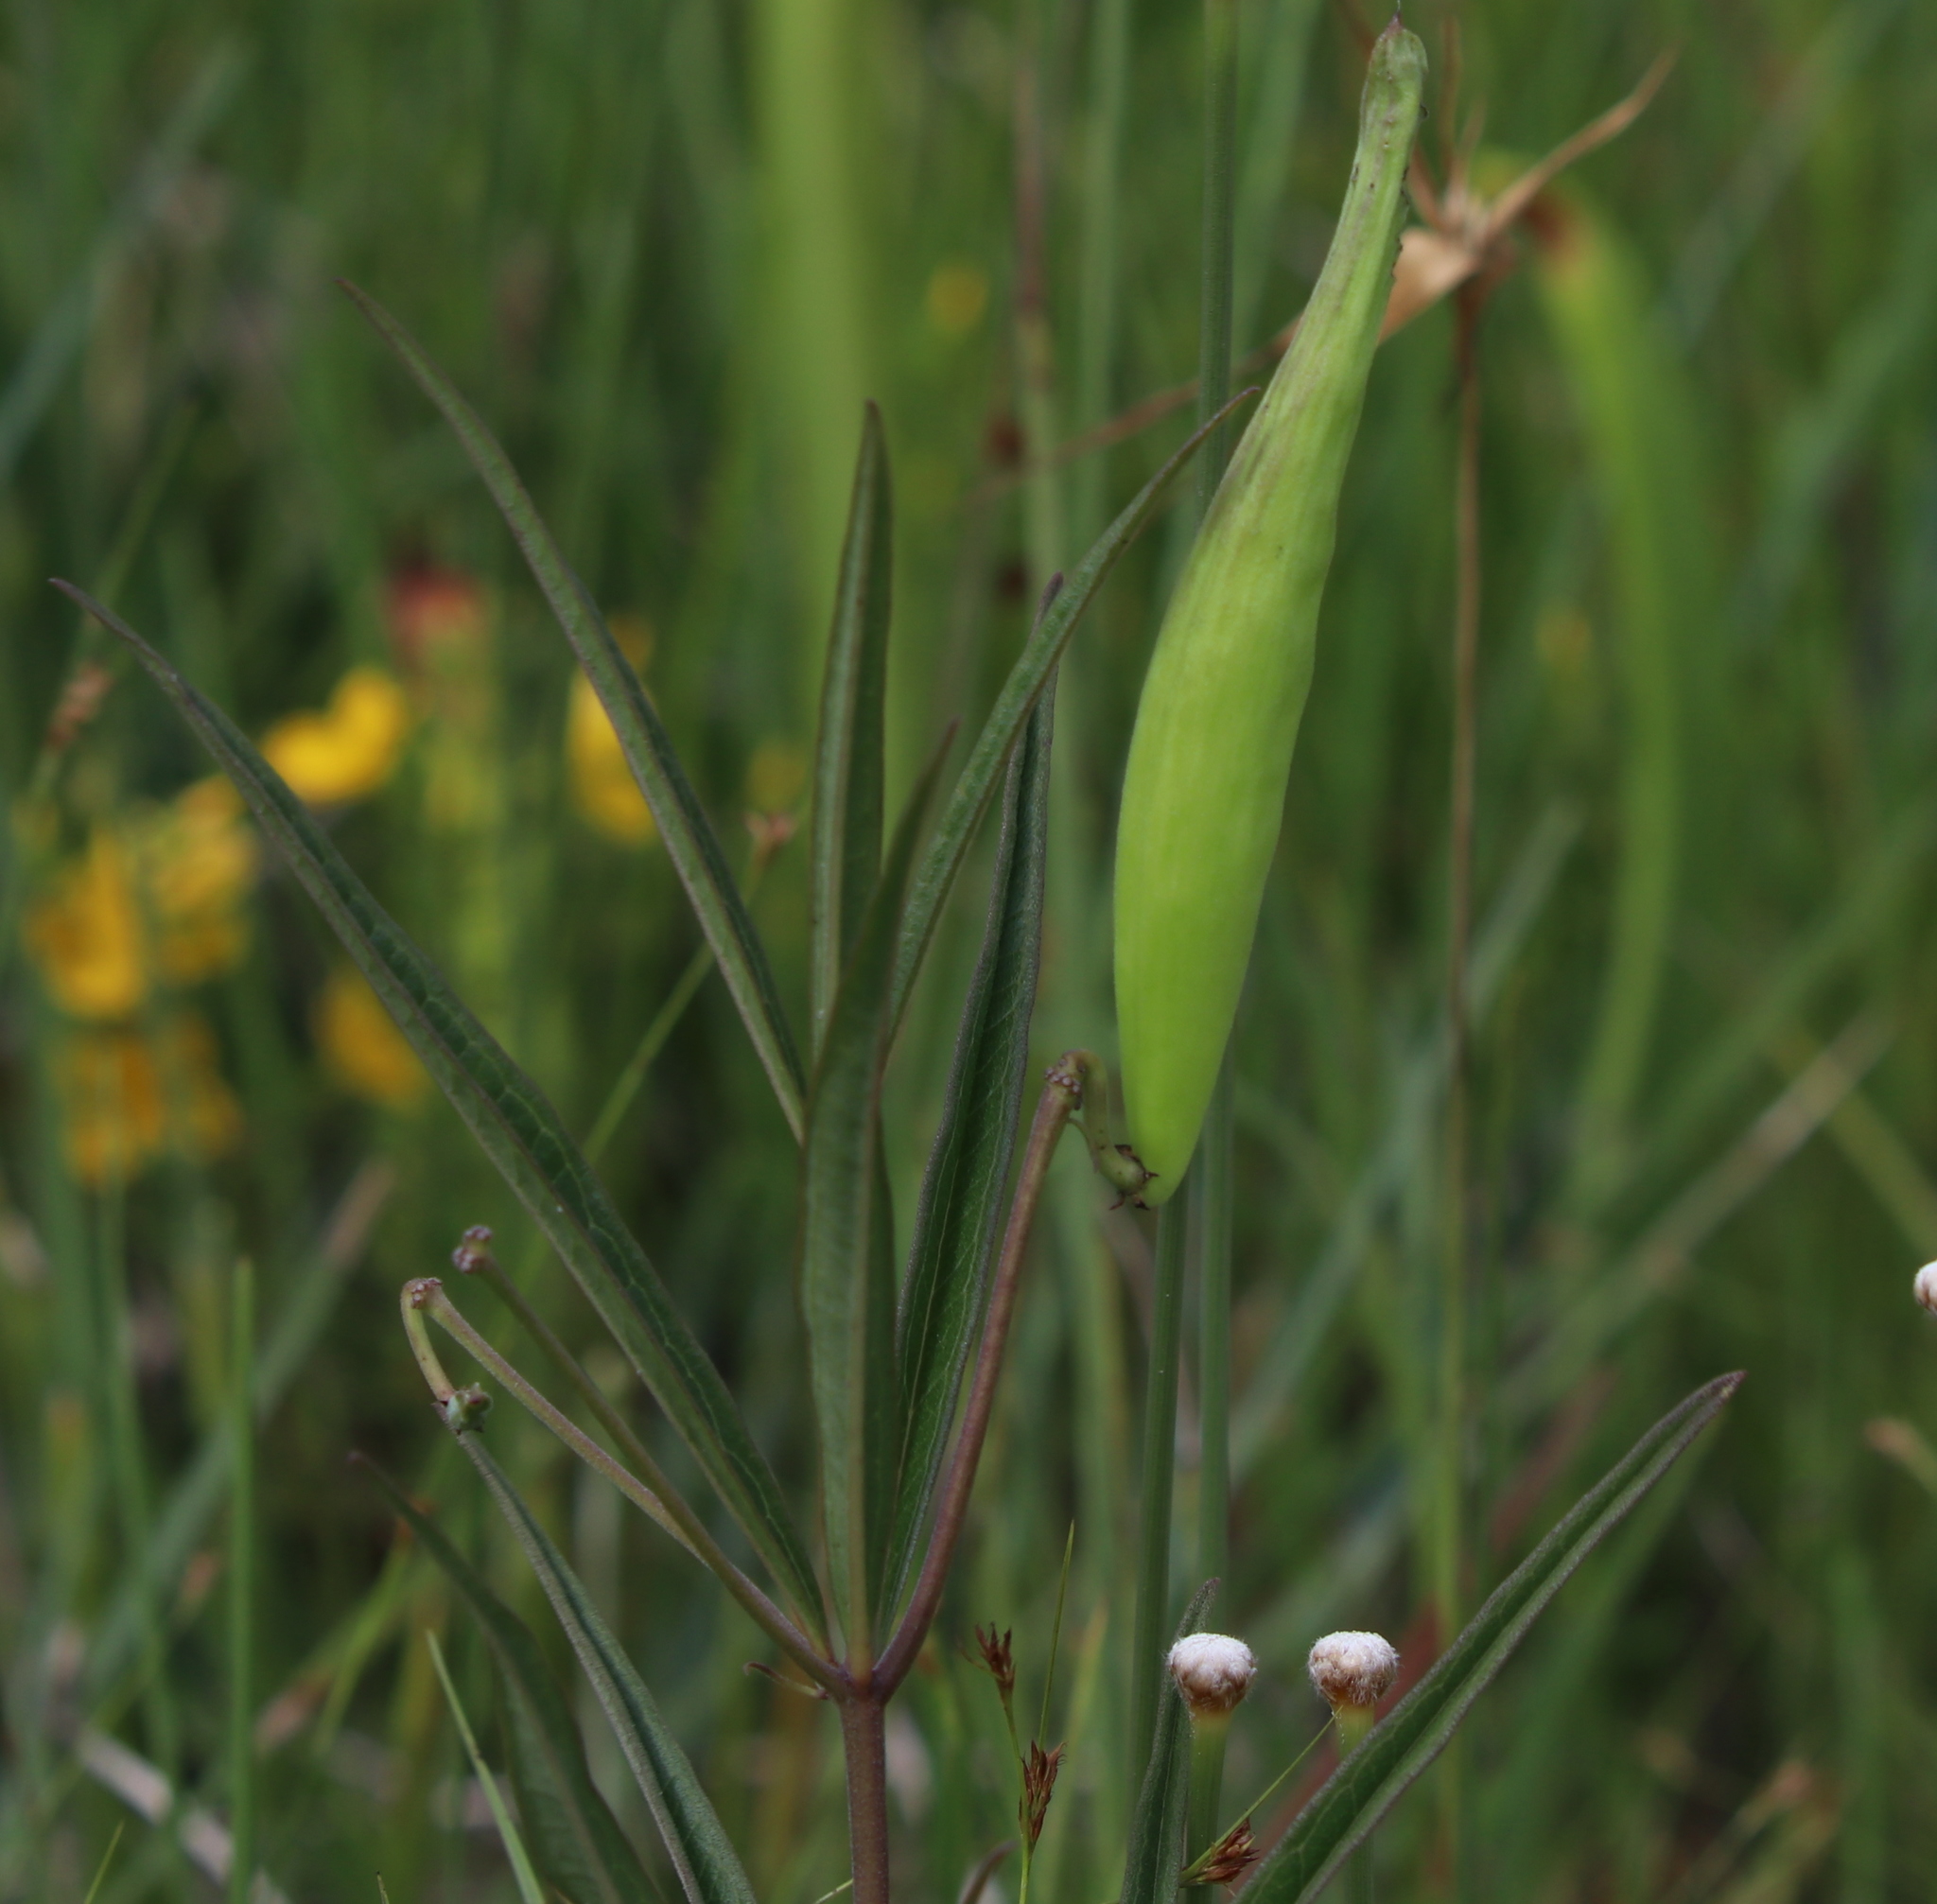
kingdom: Plantae
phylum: Tracheophyta
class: Magnoliopsida
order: Gentianales
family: Apocynaceae
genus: Asclepias
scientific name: Asclepias longifolia
